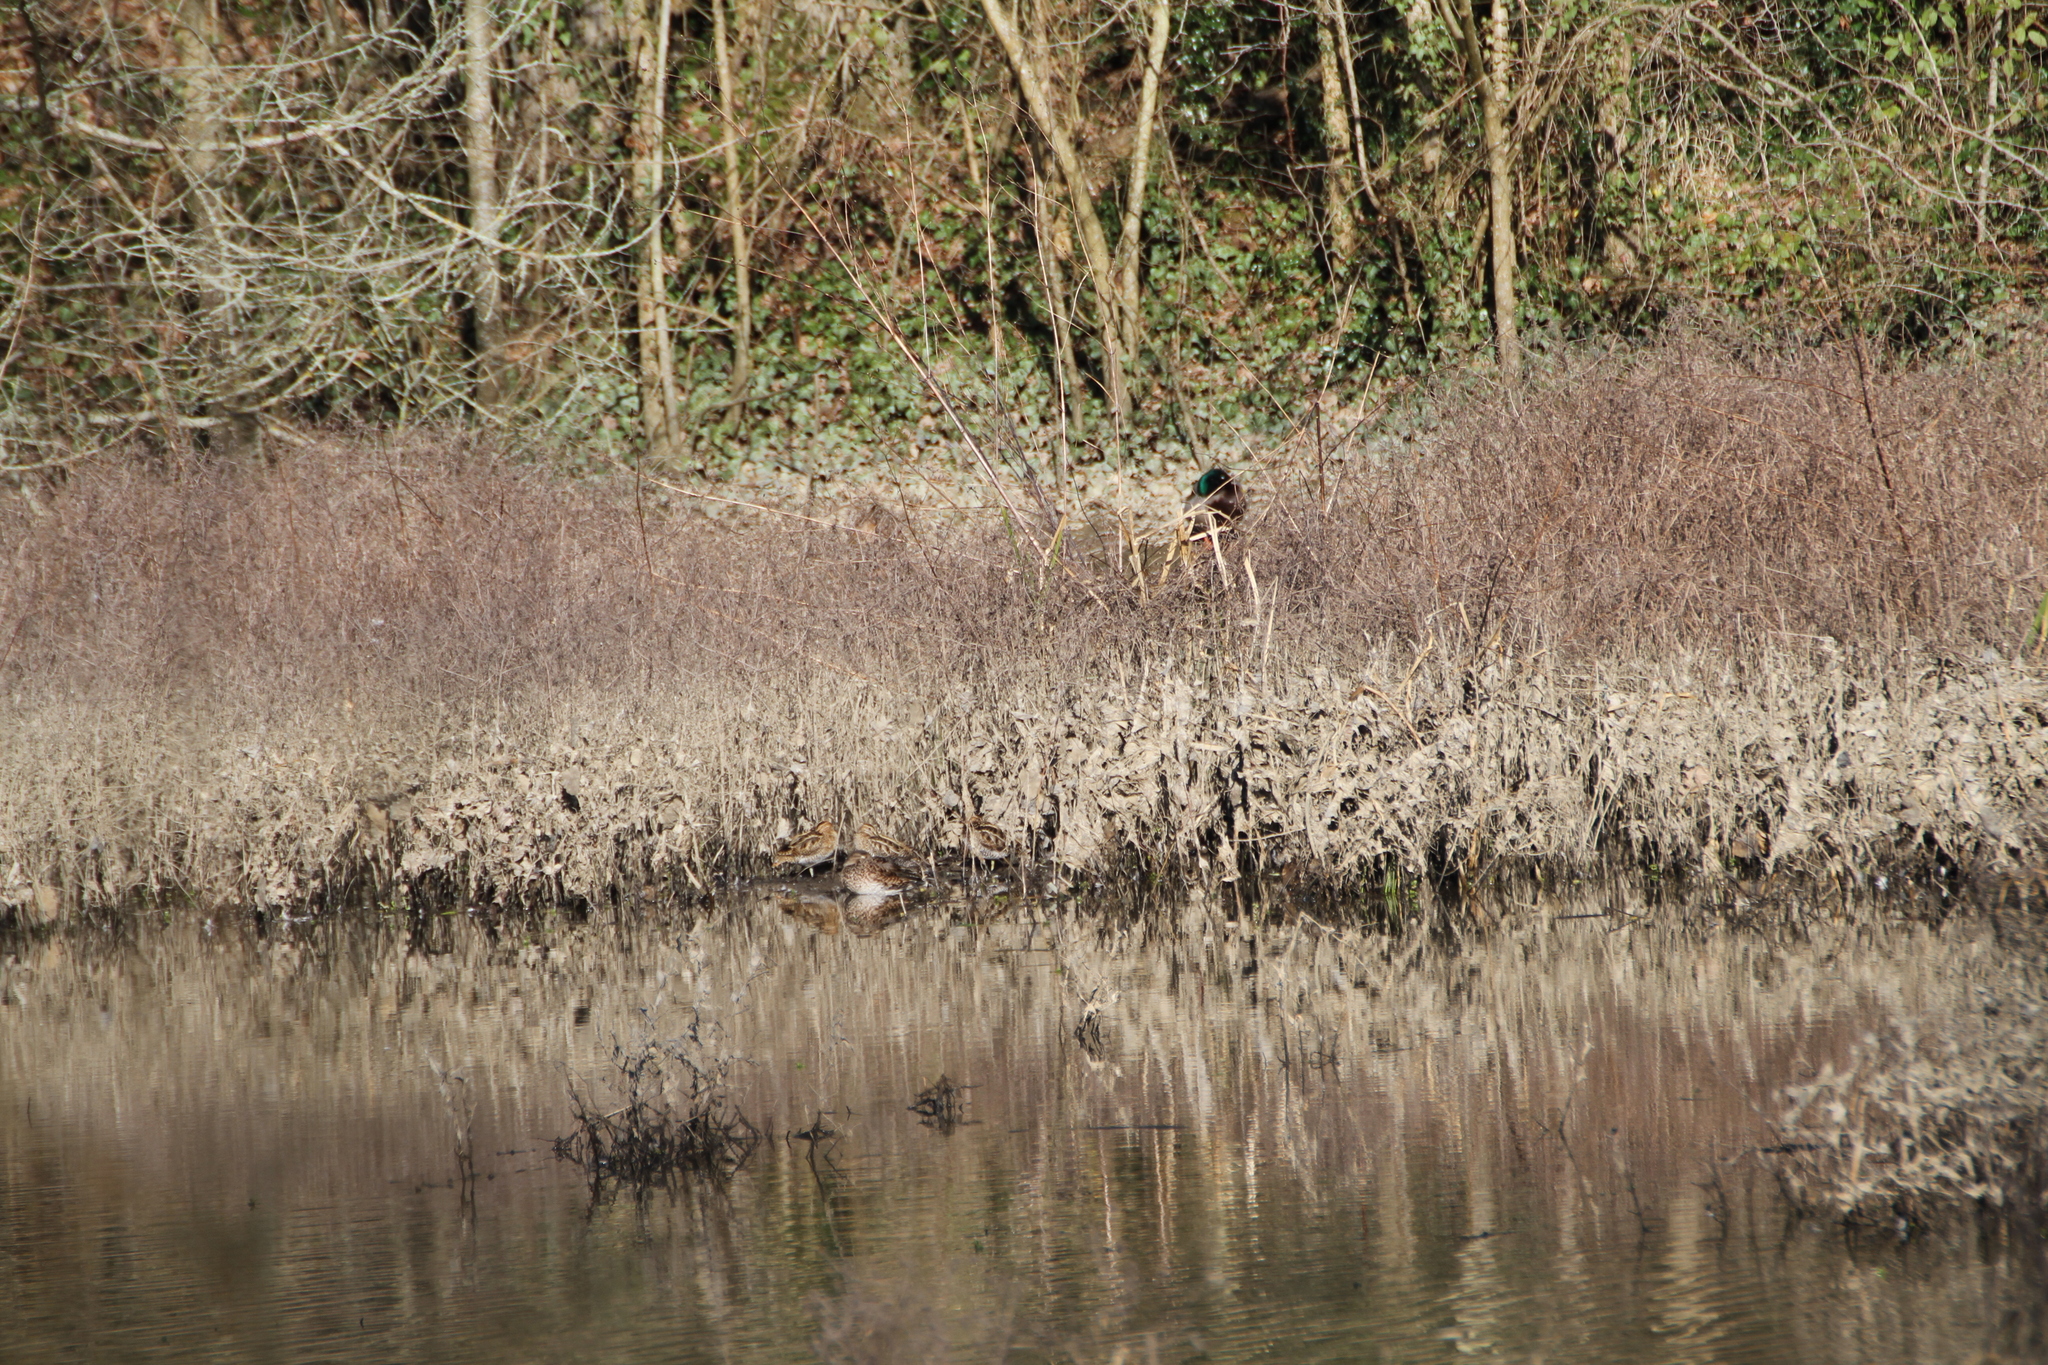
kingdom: Animalia
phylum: Chordata
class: Aves
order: Charadriiformes
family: Scolopacidae
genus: Gallinago
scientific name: Gallinago gallinago
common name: Common snipe
